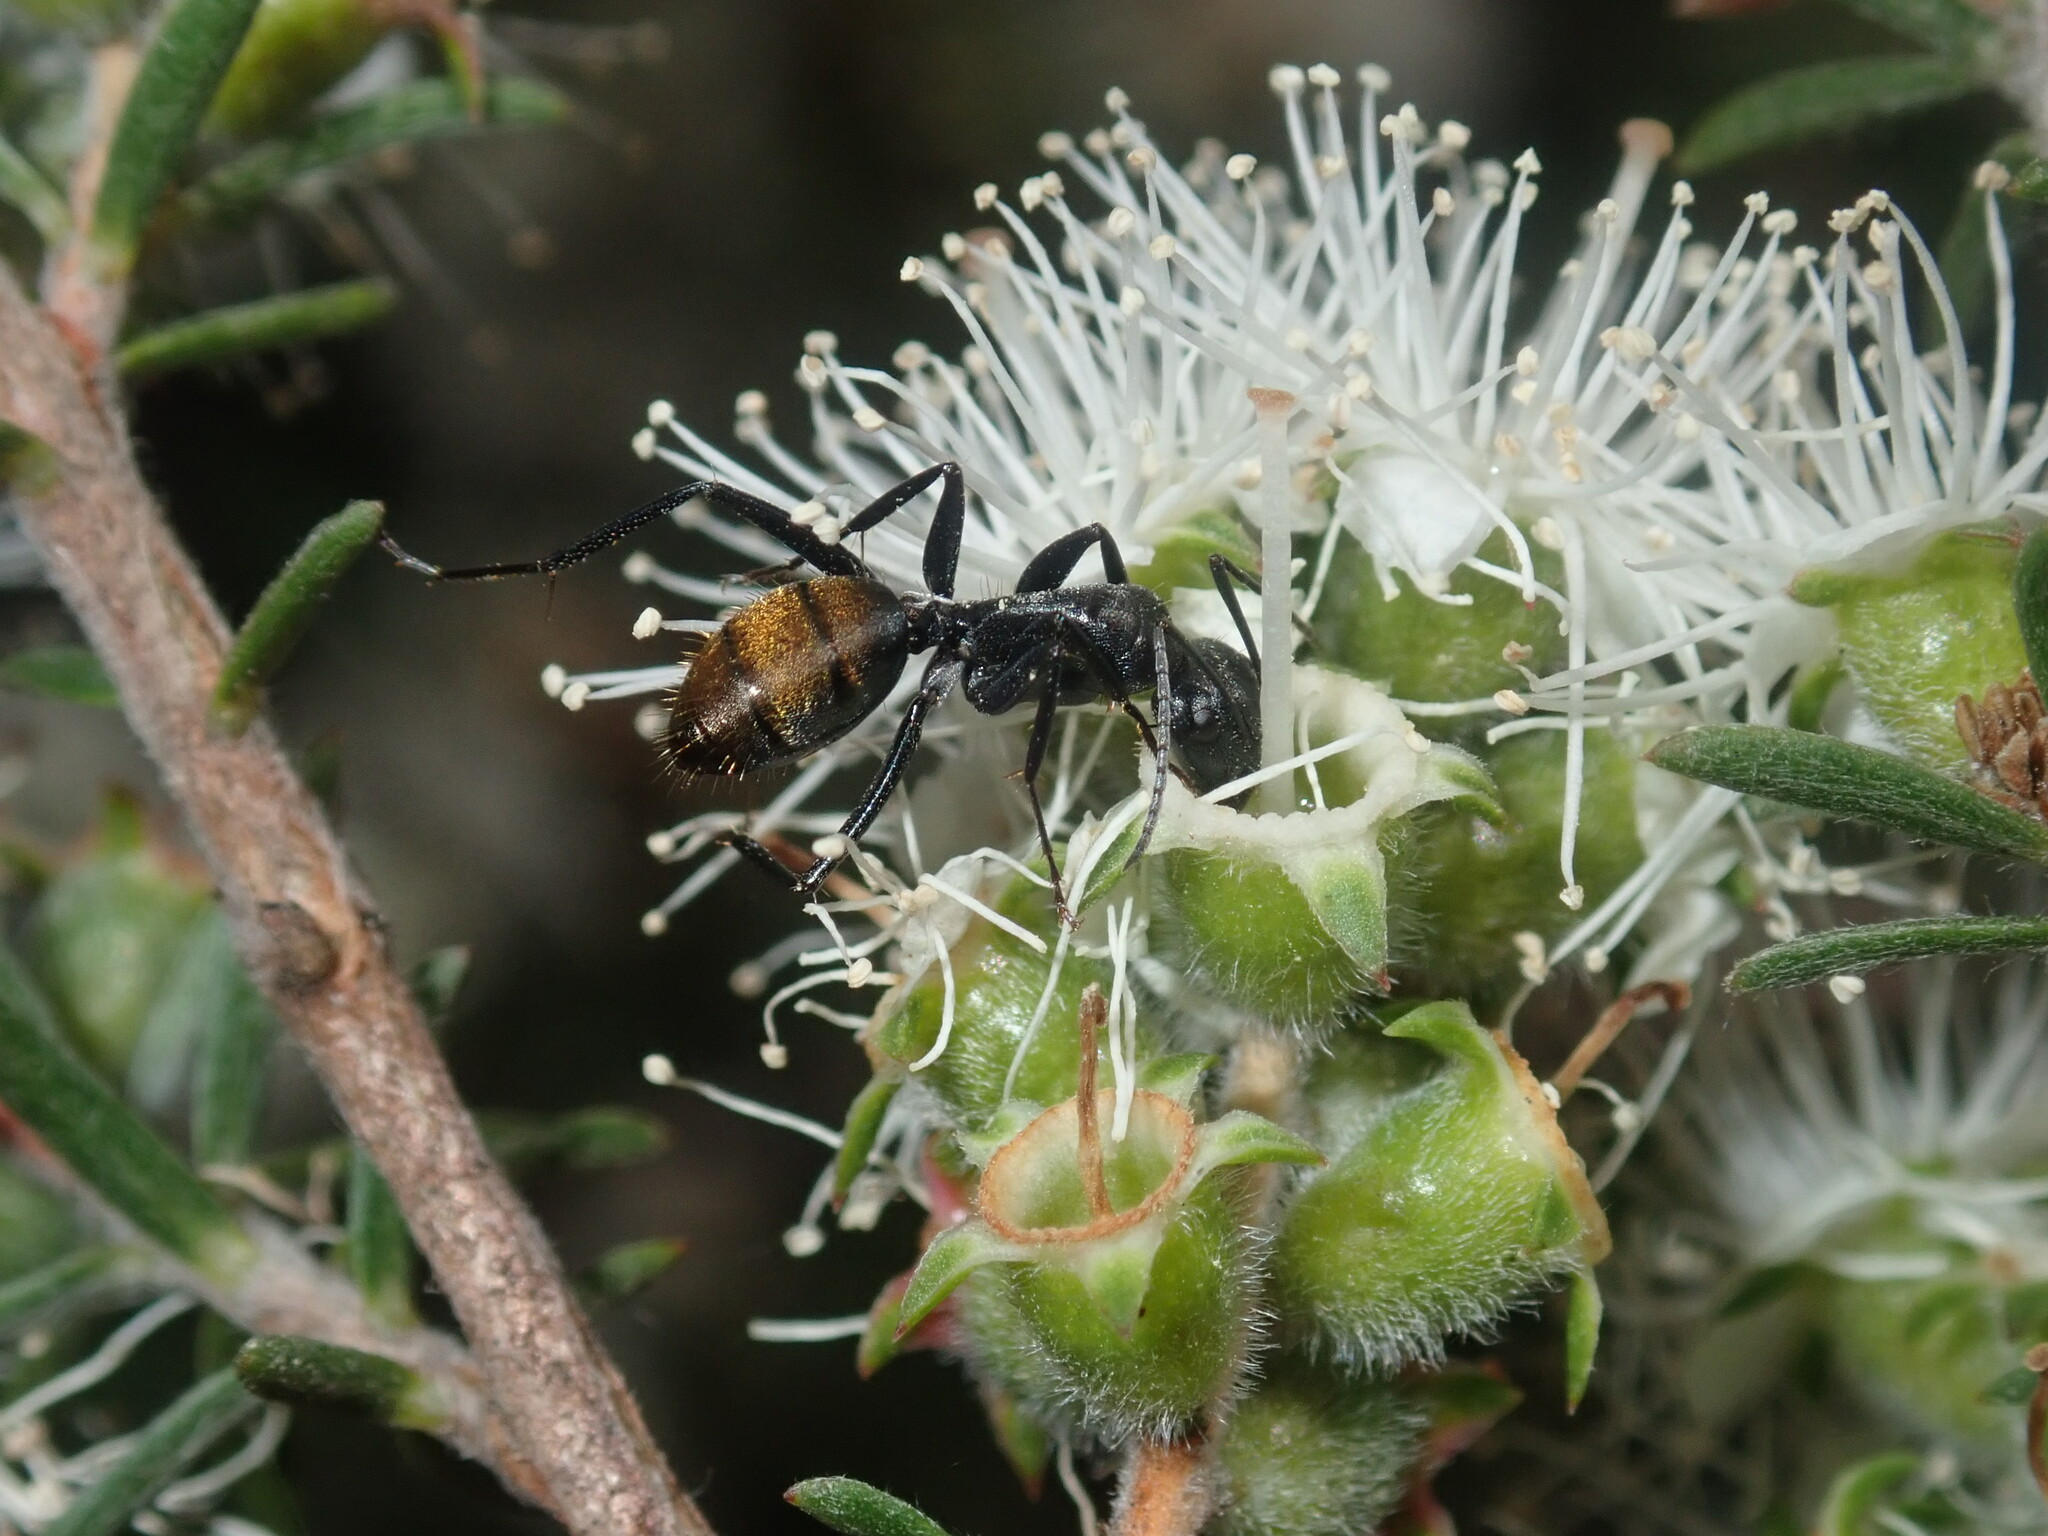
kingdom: Animalia
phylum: Arthropoda
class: Insecta
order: Hymenoptera
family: Formicidae
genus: Camponotus
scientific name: Camponotus aeneopilosus
